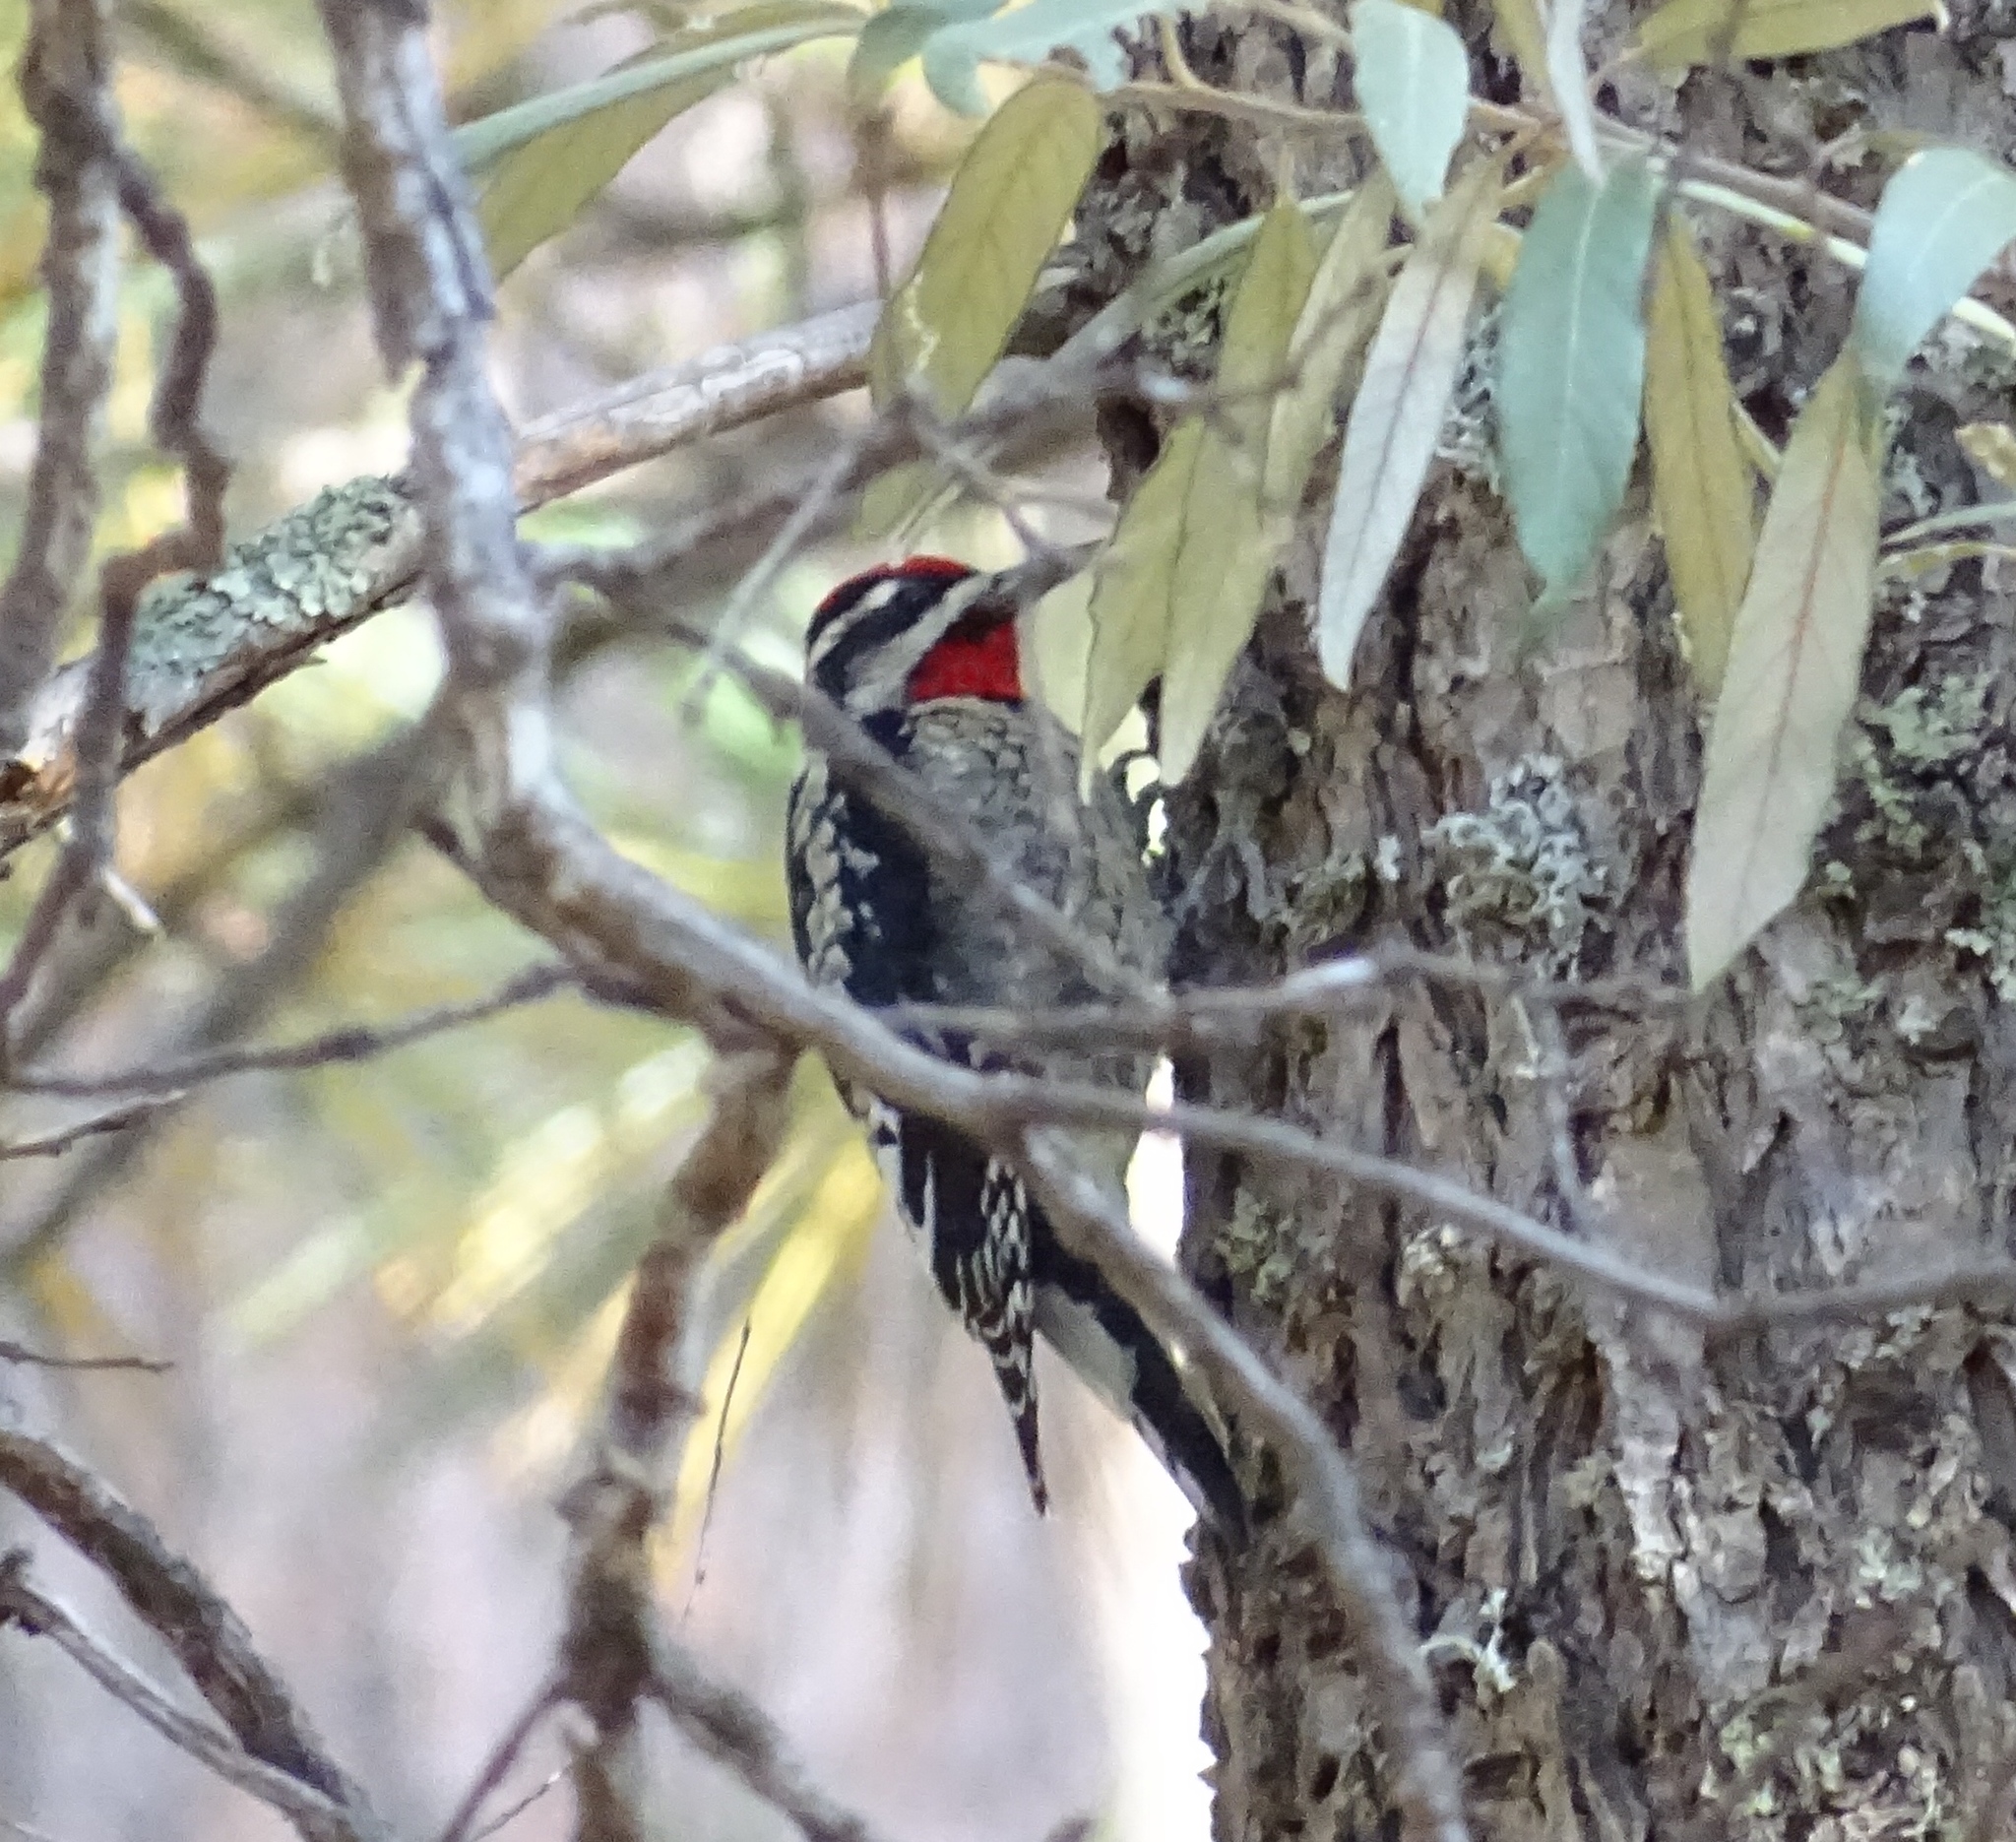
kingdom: Animalia
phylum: Chordata
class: Aves
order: Piciformes
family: Picidae
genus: Sphyrapicus
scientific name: Sphyrapicus nuchalis
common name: Red-naped sapsucker
